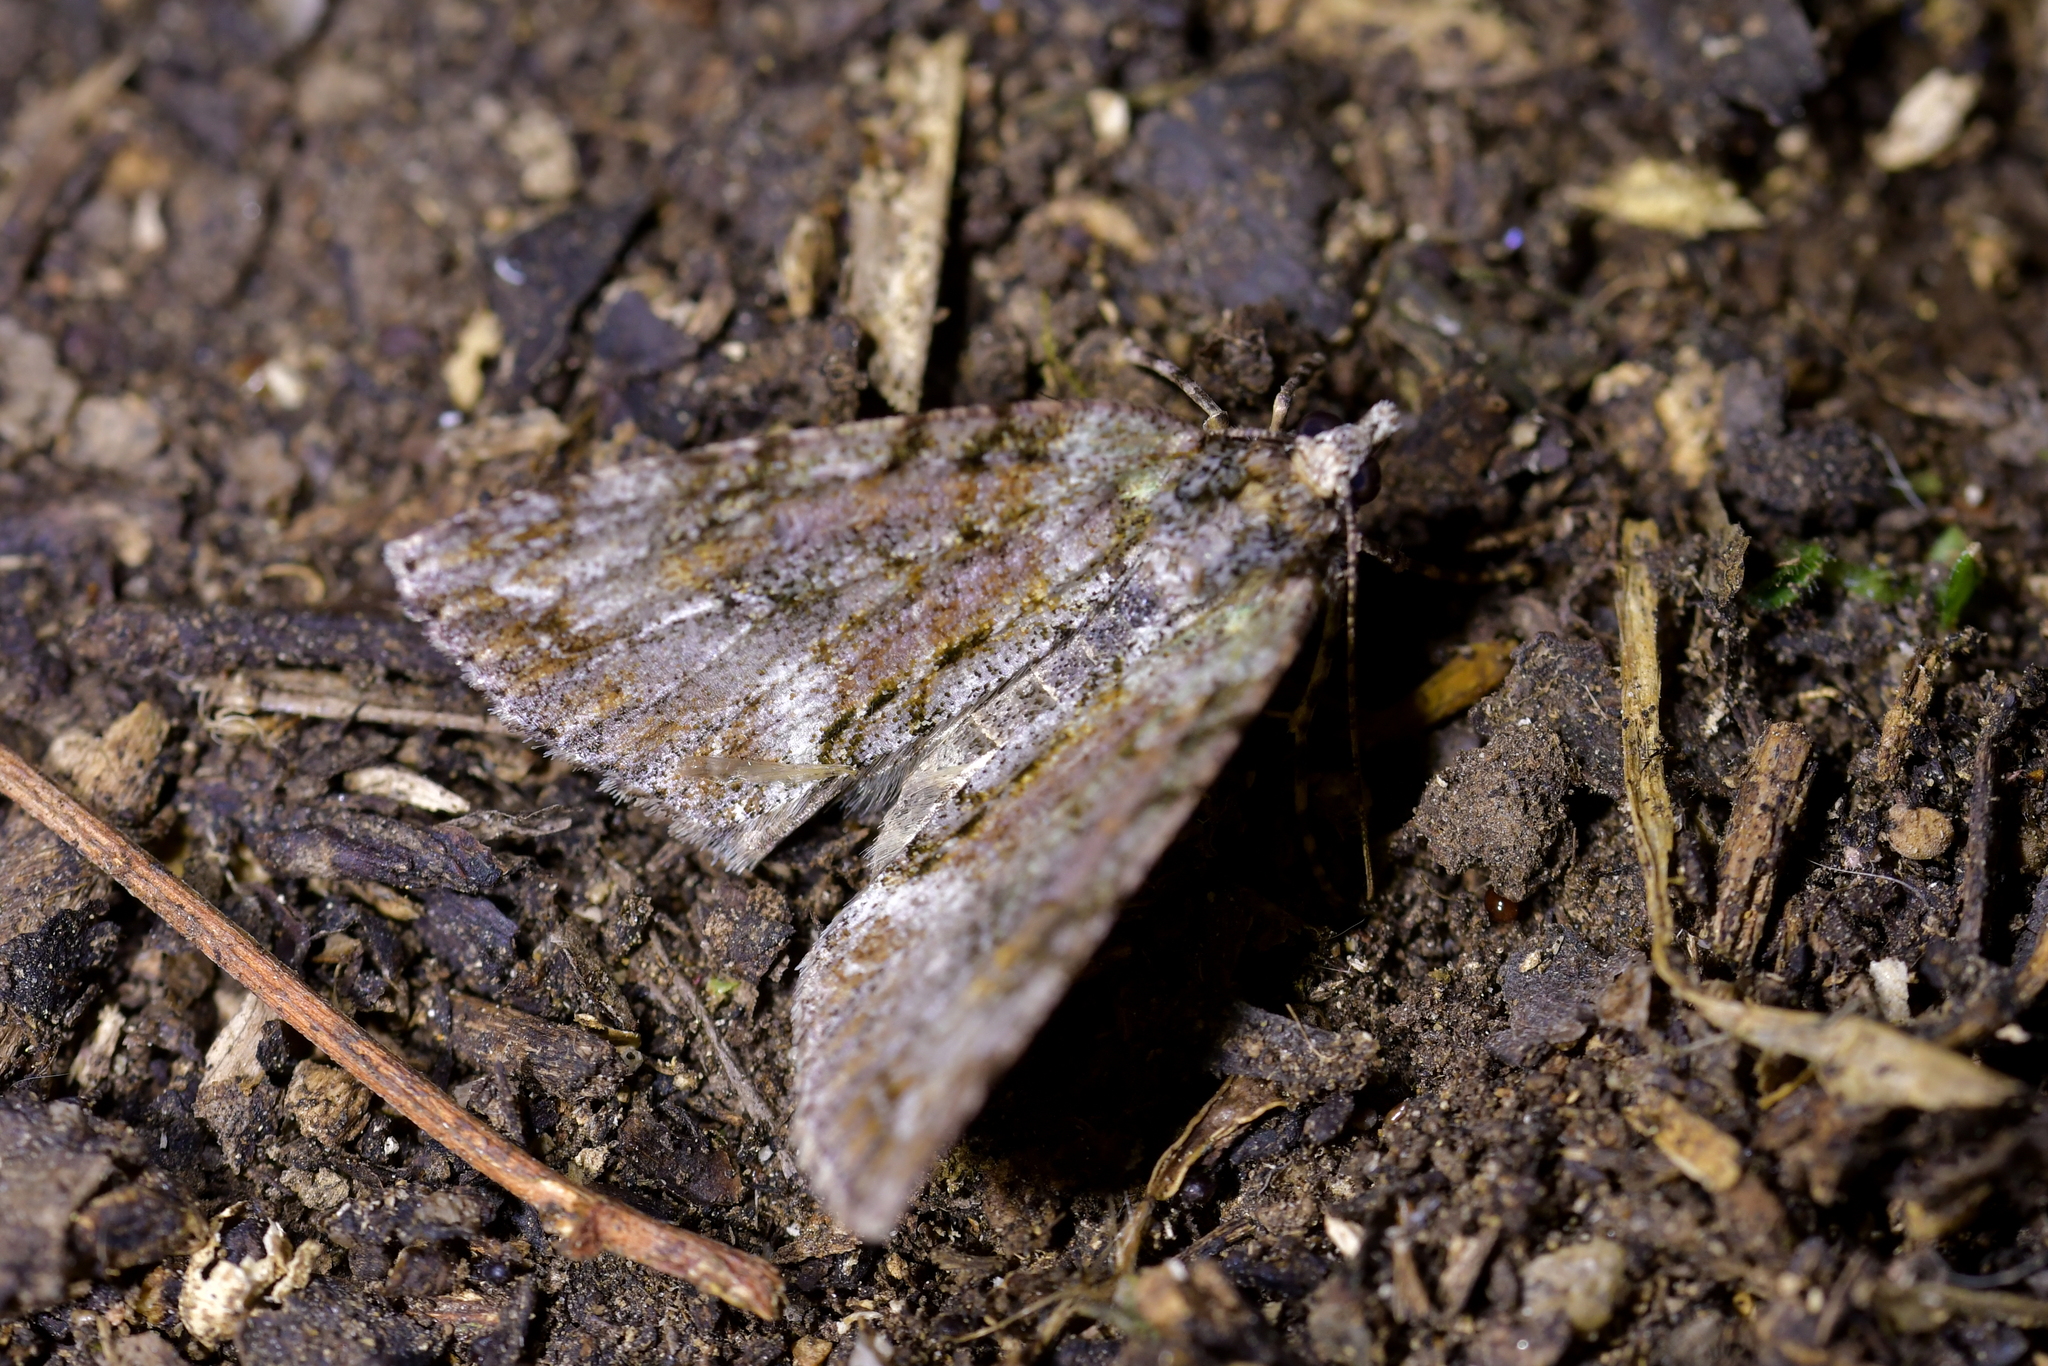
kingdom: Animalia
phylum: Arthropoda
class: Insecta
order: Lepidoptera
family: Geometridae
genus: Pseudocoremia
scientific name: Pseudocoremia suavis
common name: Common forest looper
